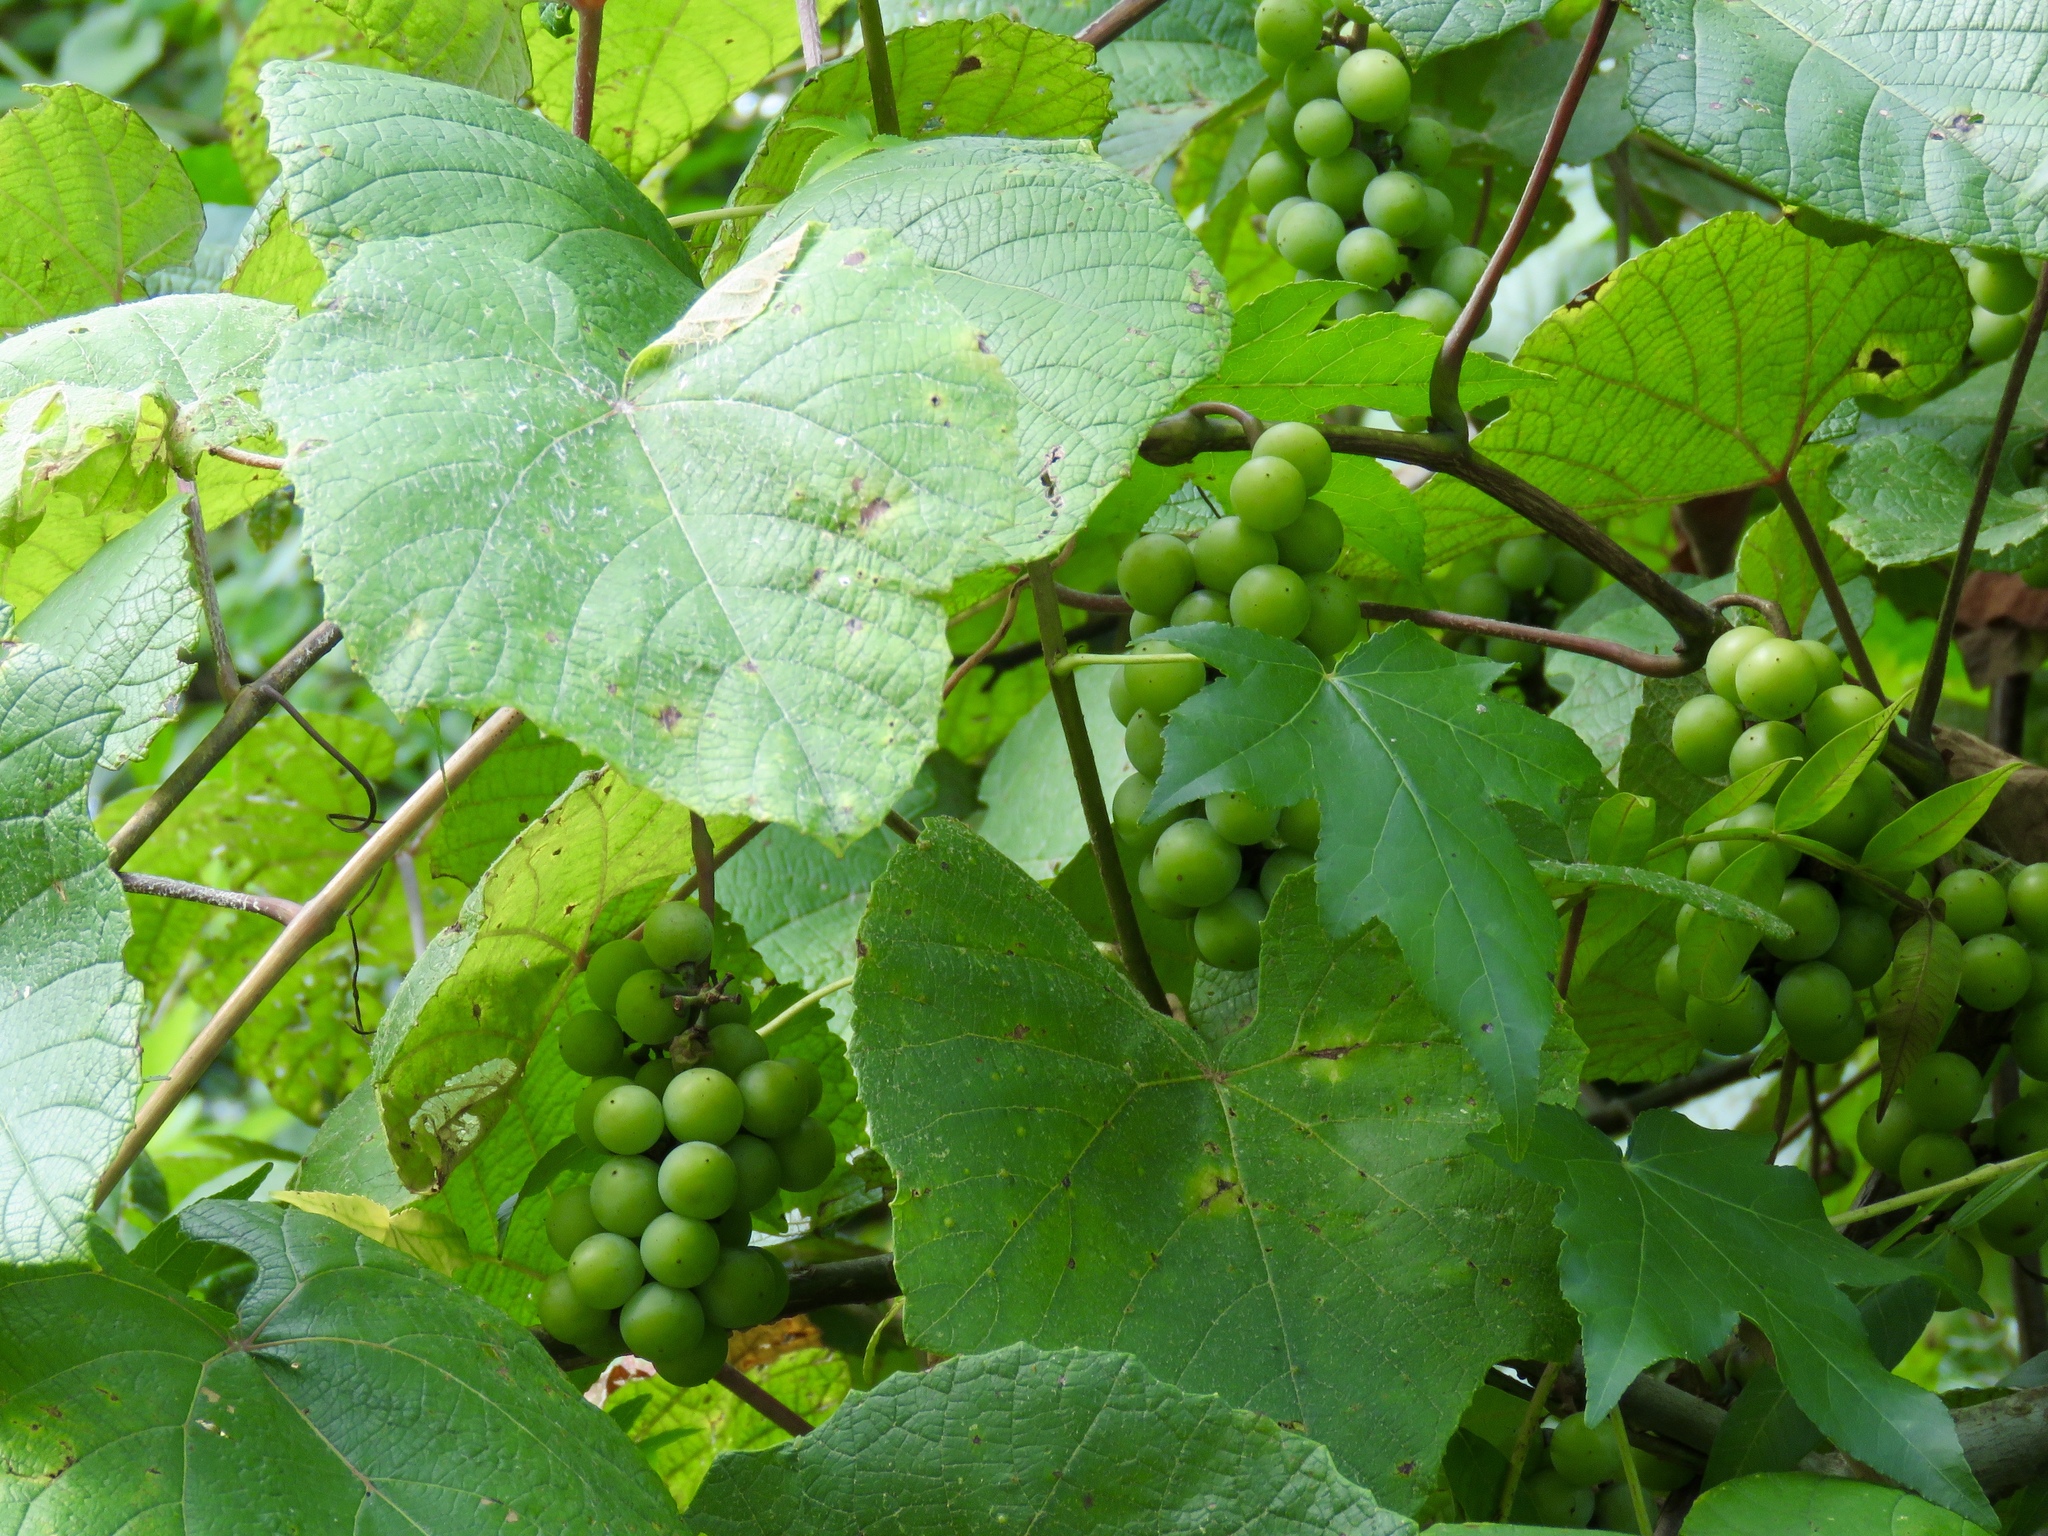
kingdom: Plantae
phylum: Tracheophyta
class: Magnoliopsida
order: Vitales
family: Vitaceae
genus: Vitis
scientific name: Vitis mustangensis
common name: Mustang grape
